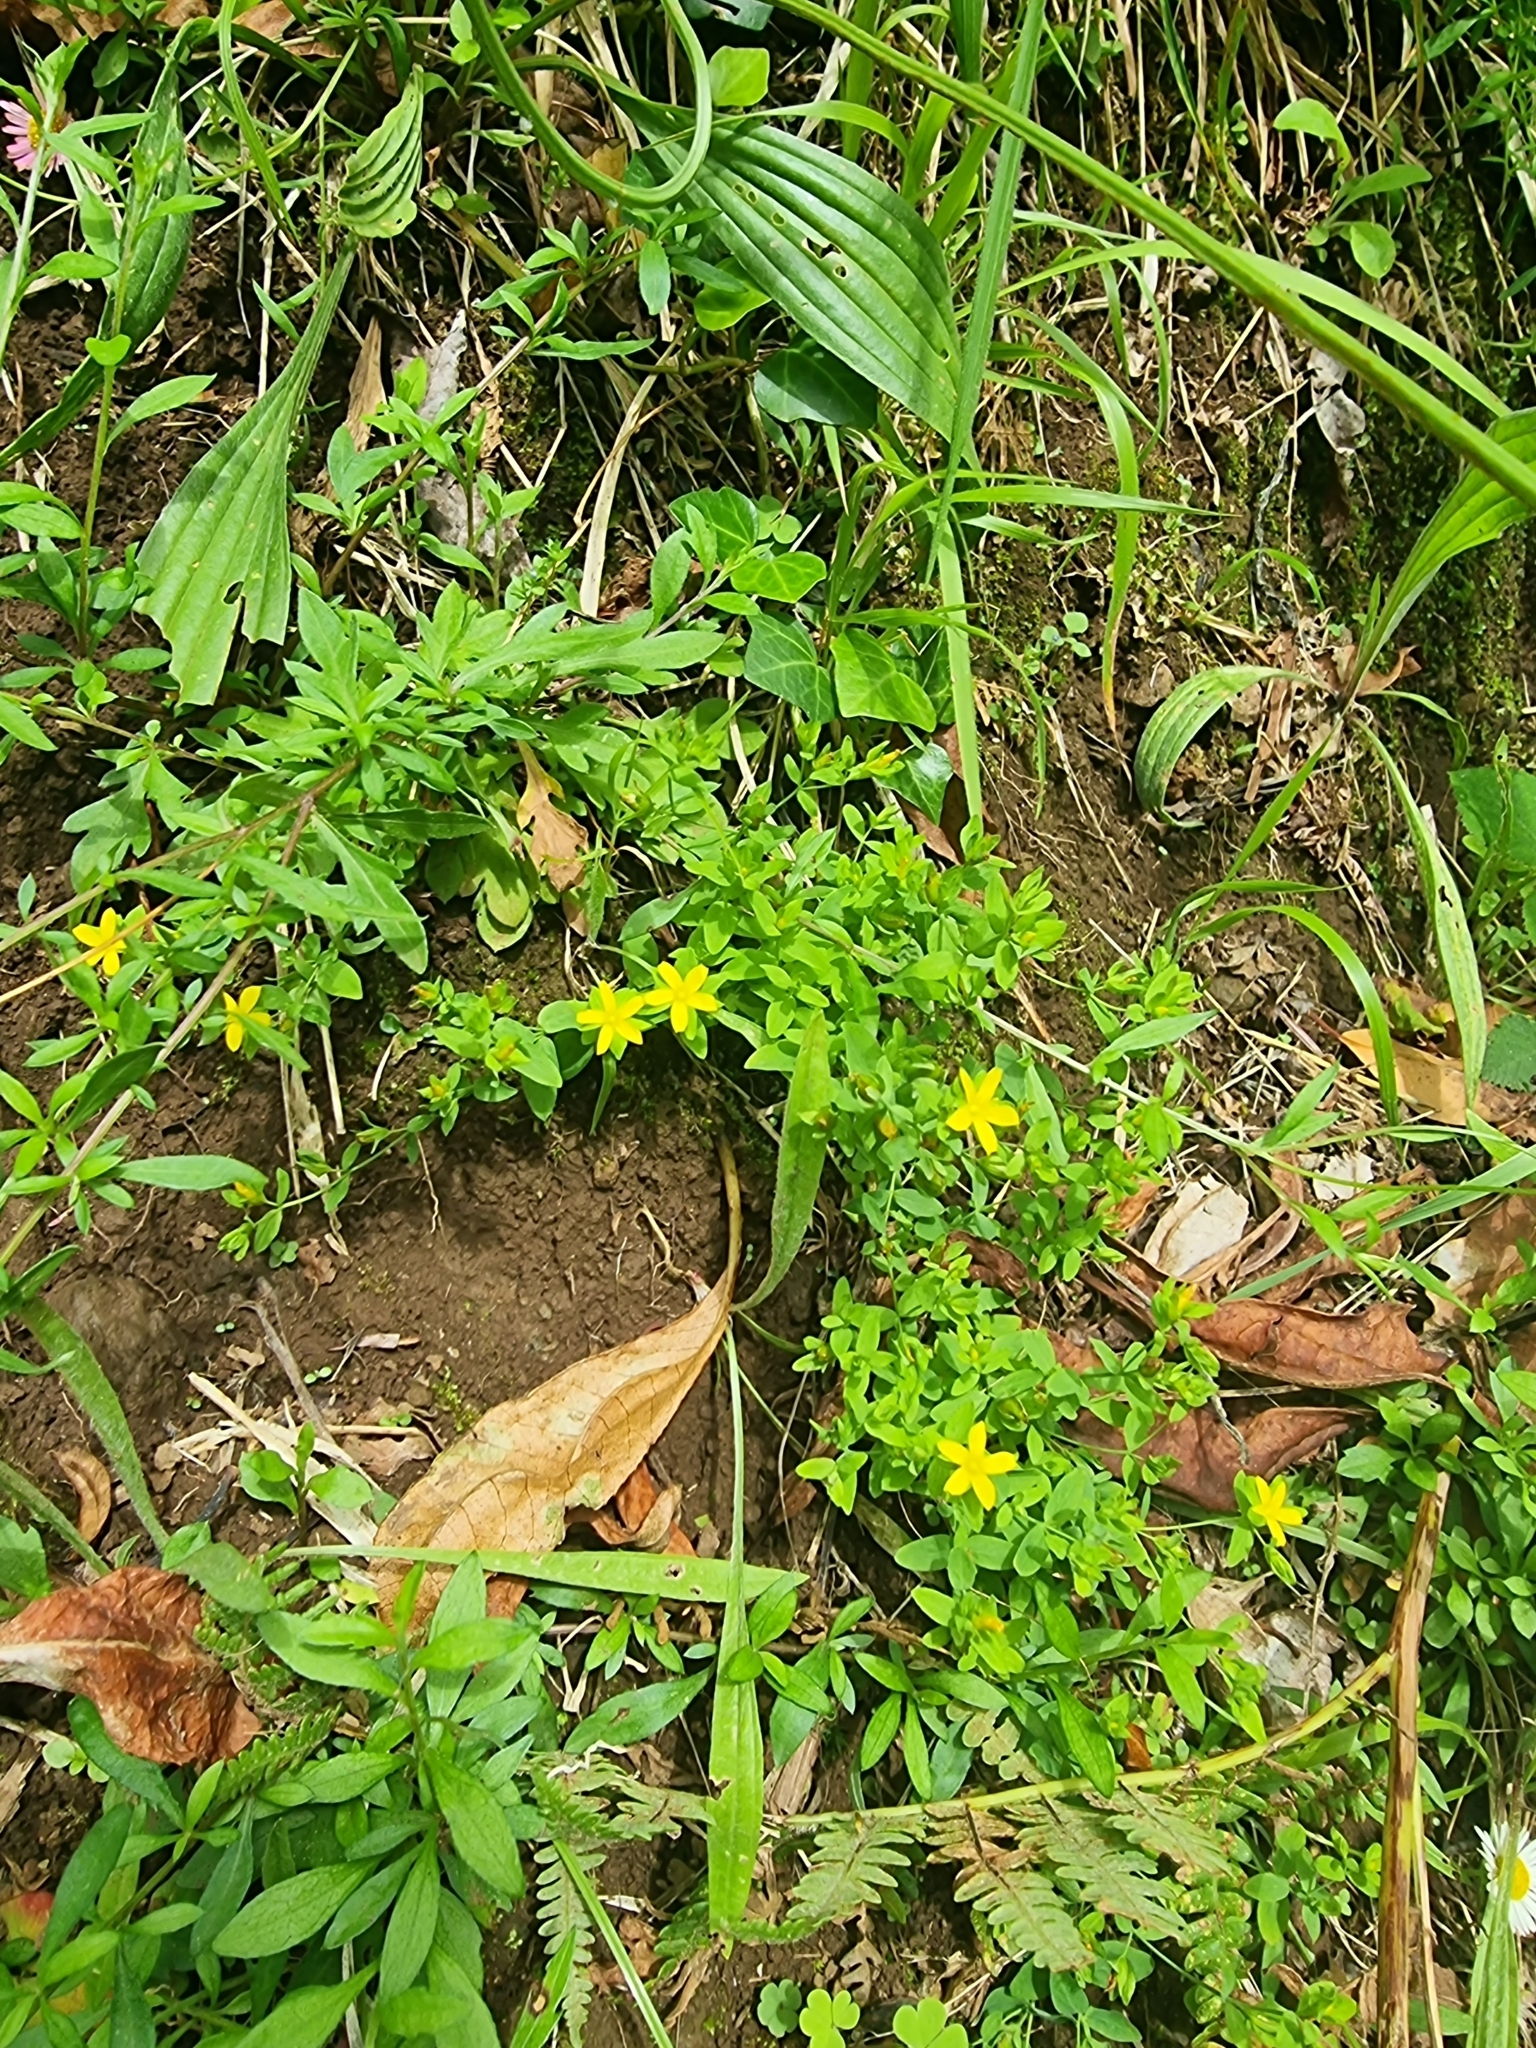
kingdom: Plantae
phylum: Tracheophyta
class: Magnoliopsida
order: Malpighiales
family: Hypericaceae
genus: Hypericum
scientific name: Hypericum humifusum
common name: Trailing st. john's-wort
